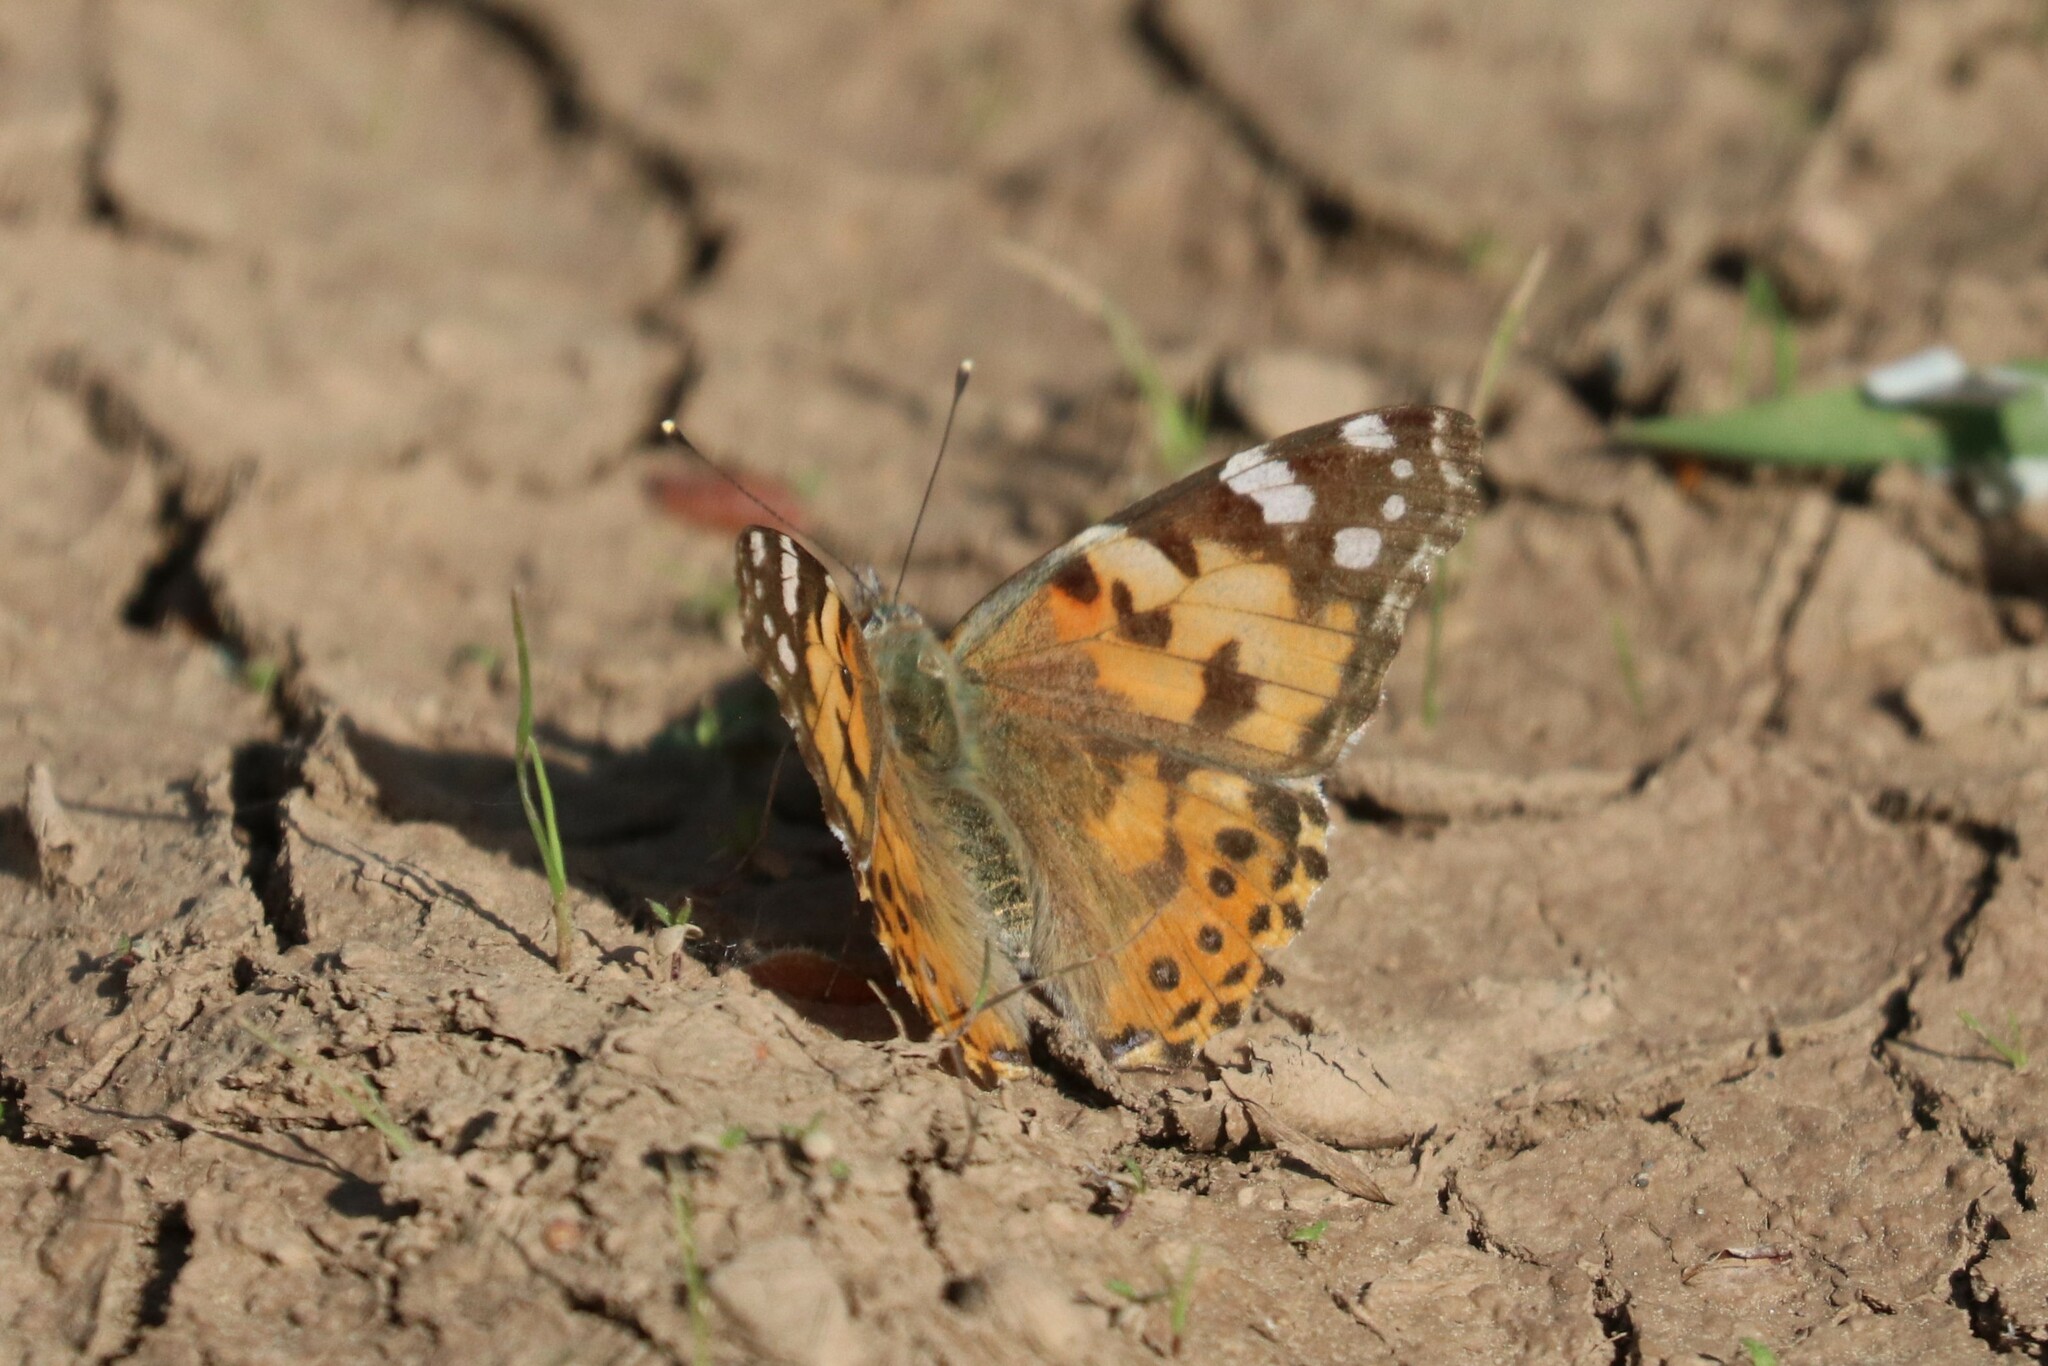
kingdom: Animalia
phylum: Arthropoda
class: Insecta
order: Lepidoptera
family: Nymphalidae
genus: Vanessa
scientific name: Vanessa cardui
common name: Painted lady
